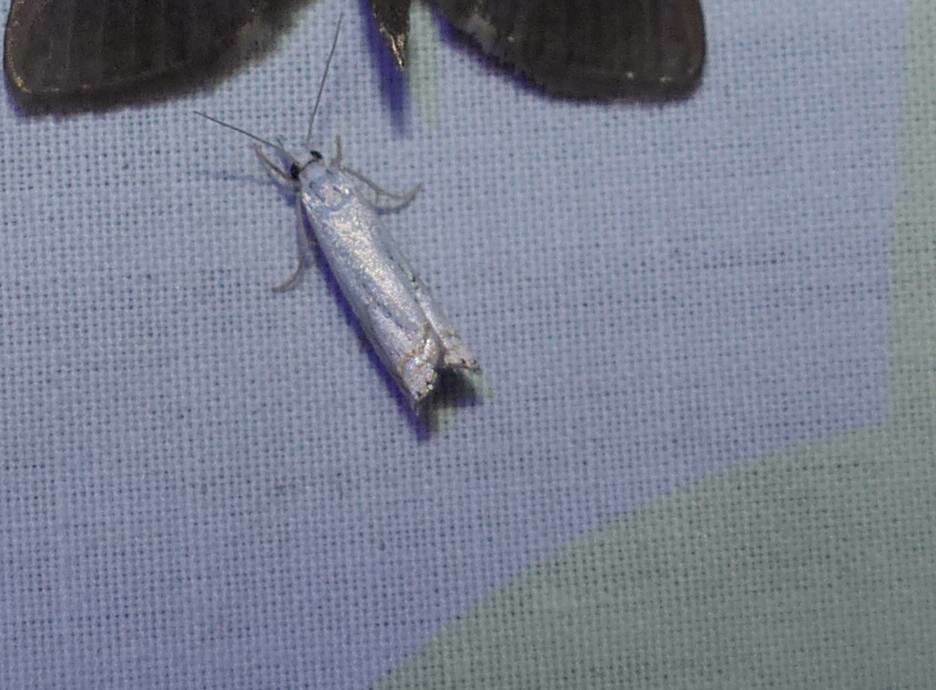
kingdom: Animalia
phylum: Arthropoda
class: Insecta
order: Lepidoptera
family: Crambidae
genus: Crambus
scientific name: Crambus albellus
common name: Small white grass-veneer
